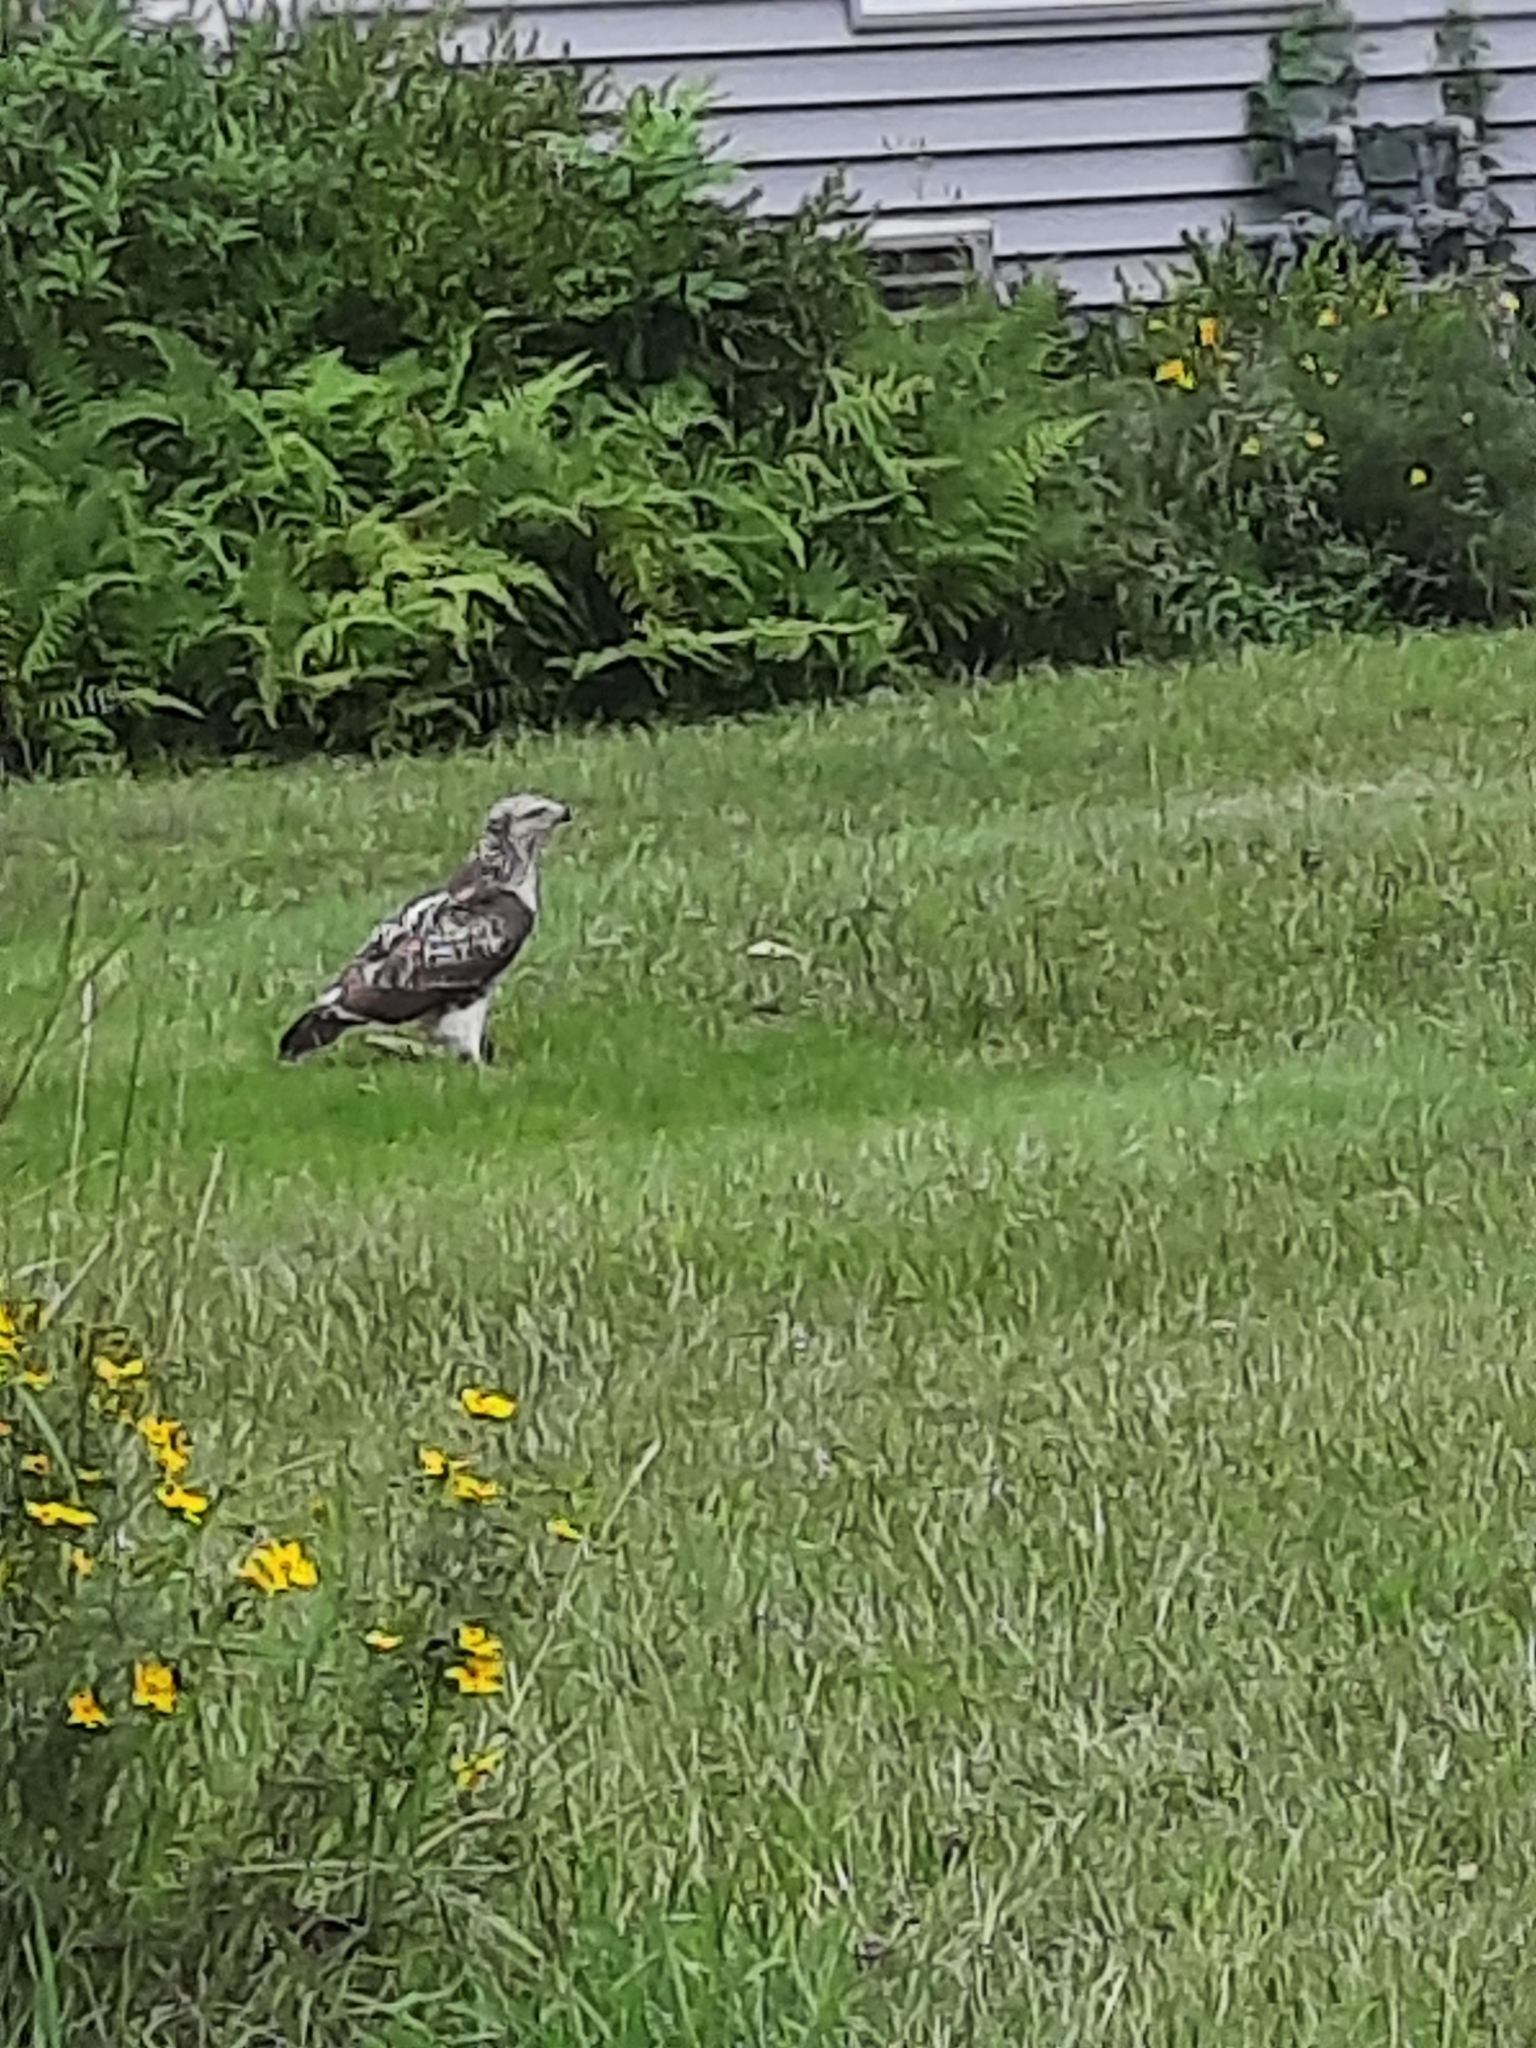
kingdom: Animalia
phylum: Chordata
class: Aves
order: Accipitriformes
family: Accipitridae
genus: Buteo
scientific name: Buteo jamaicensis
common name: Red-tailed hawk
